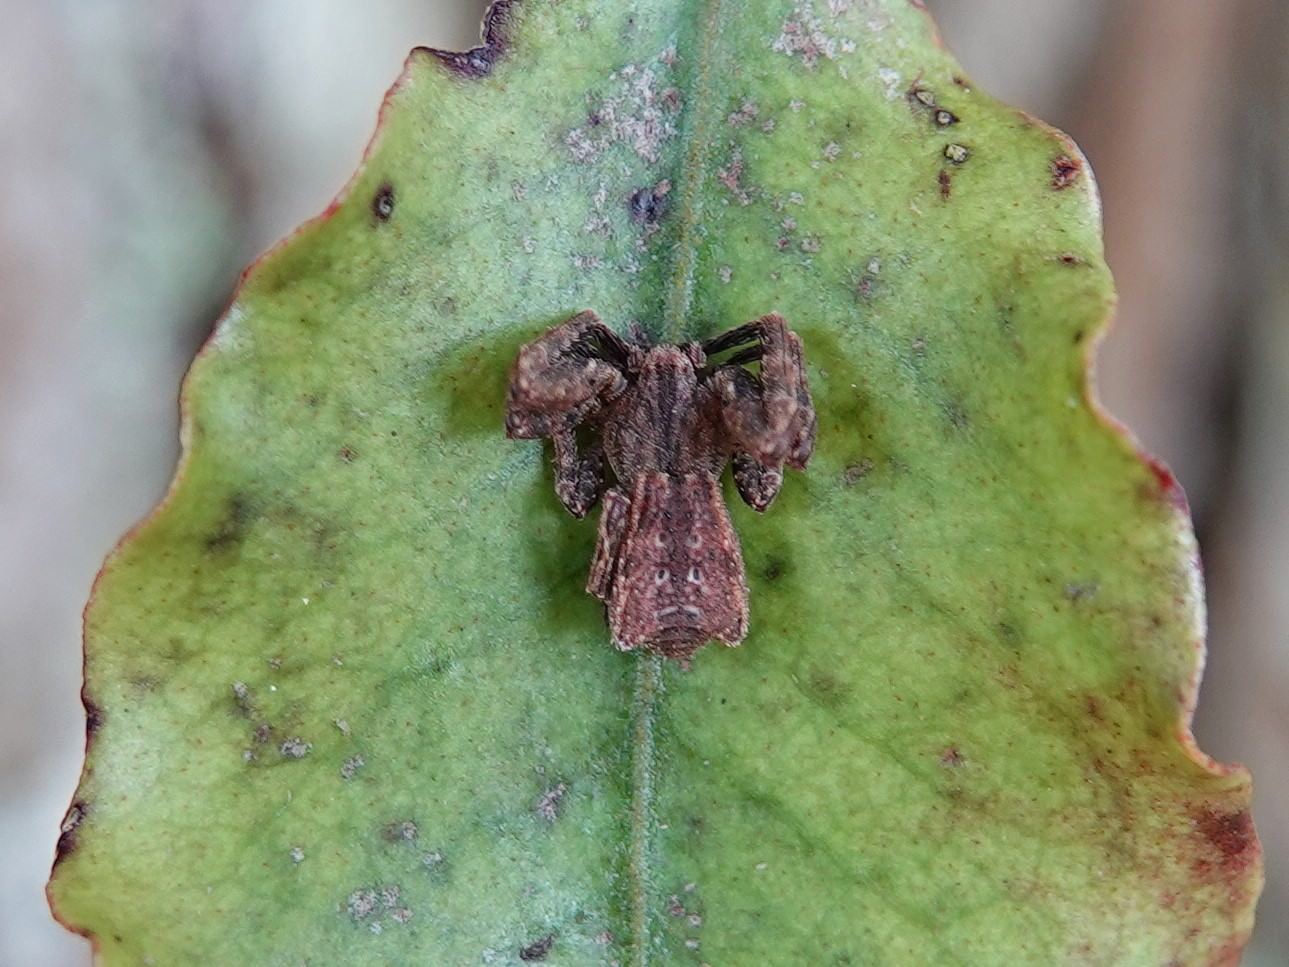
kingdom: Animalia
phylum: Arthropoda
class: Arachnida
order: Araneae
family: Thomisidae
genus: Sidymella
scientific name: Sidymella angulata
